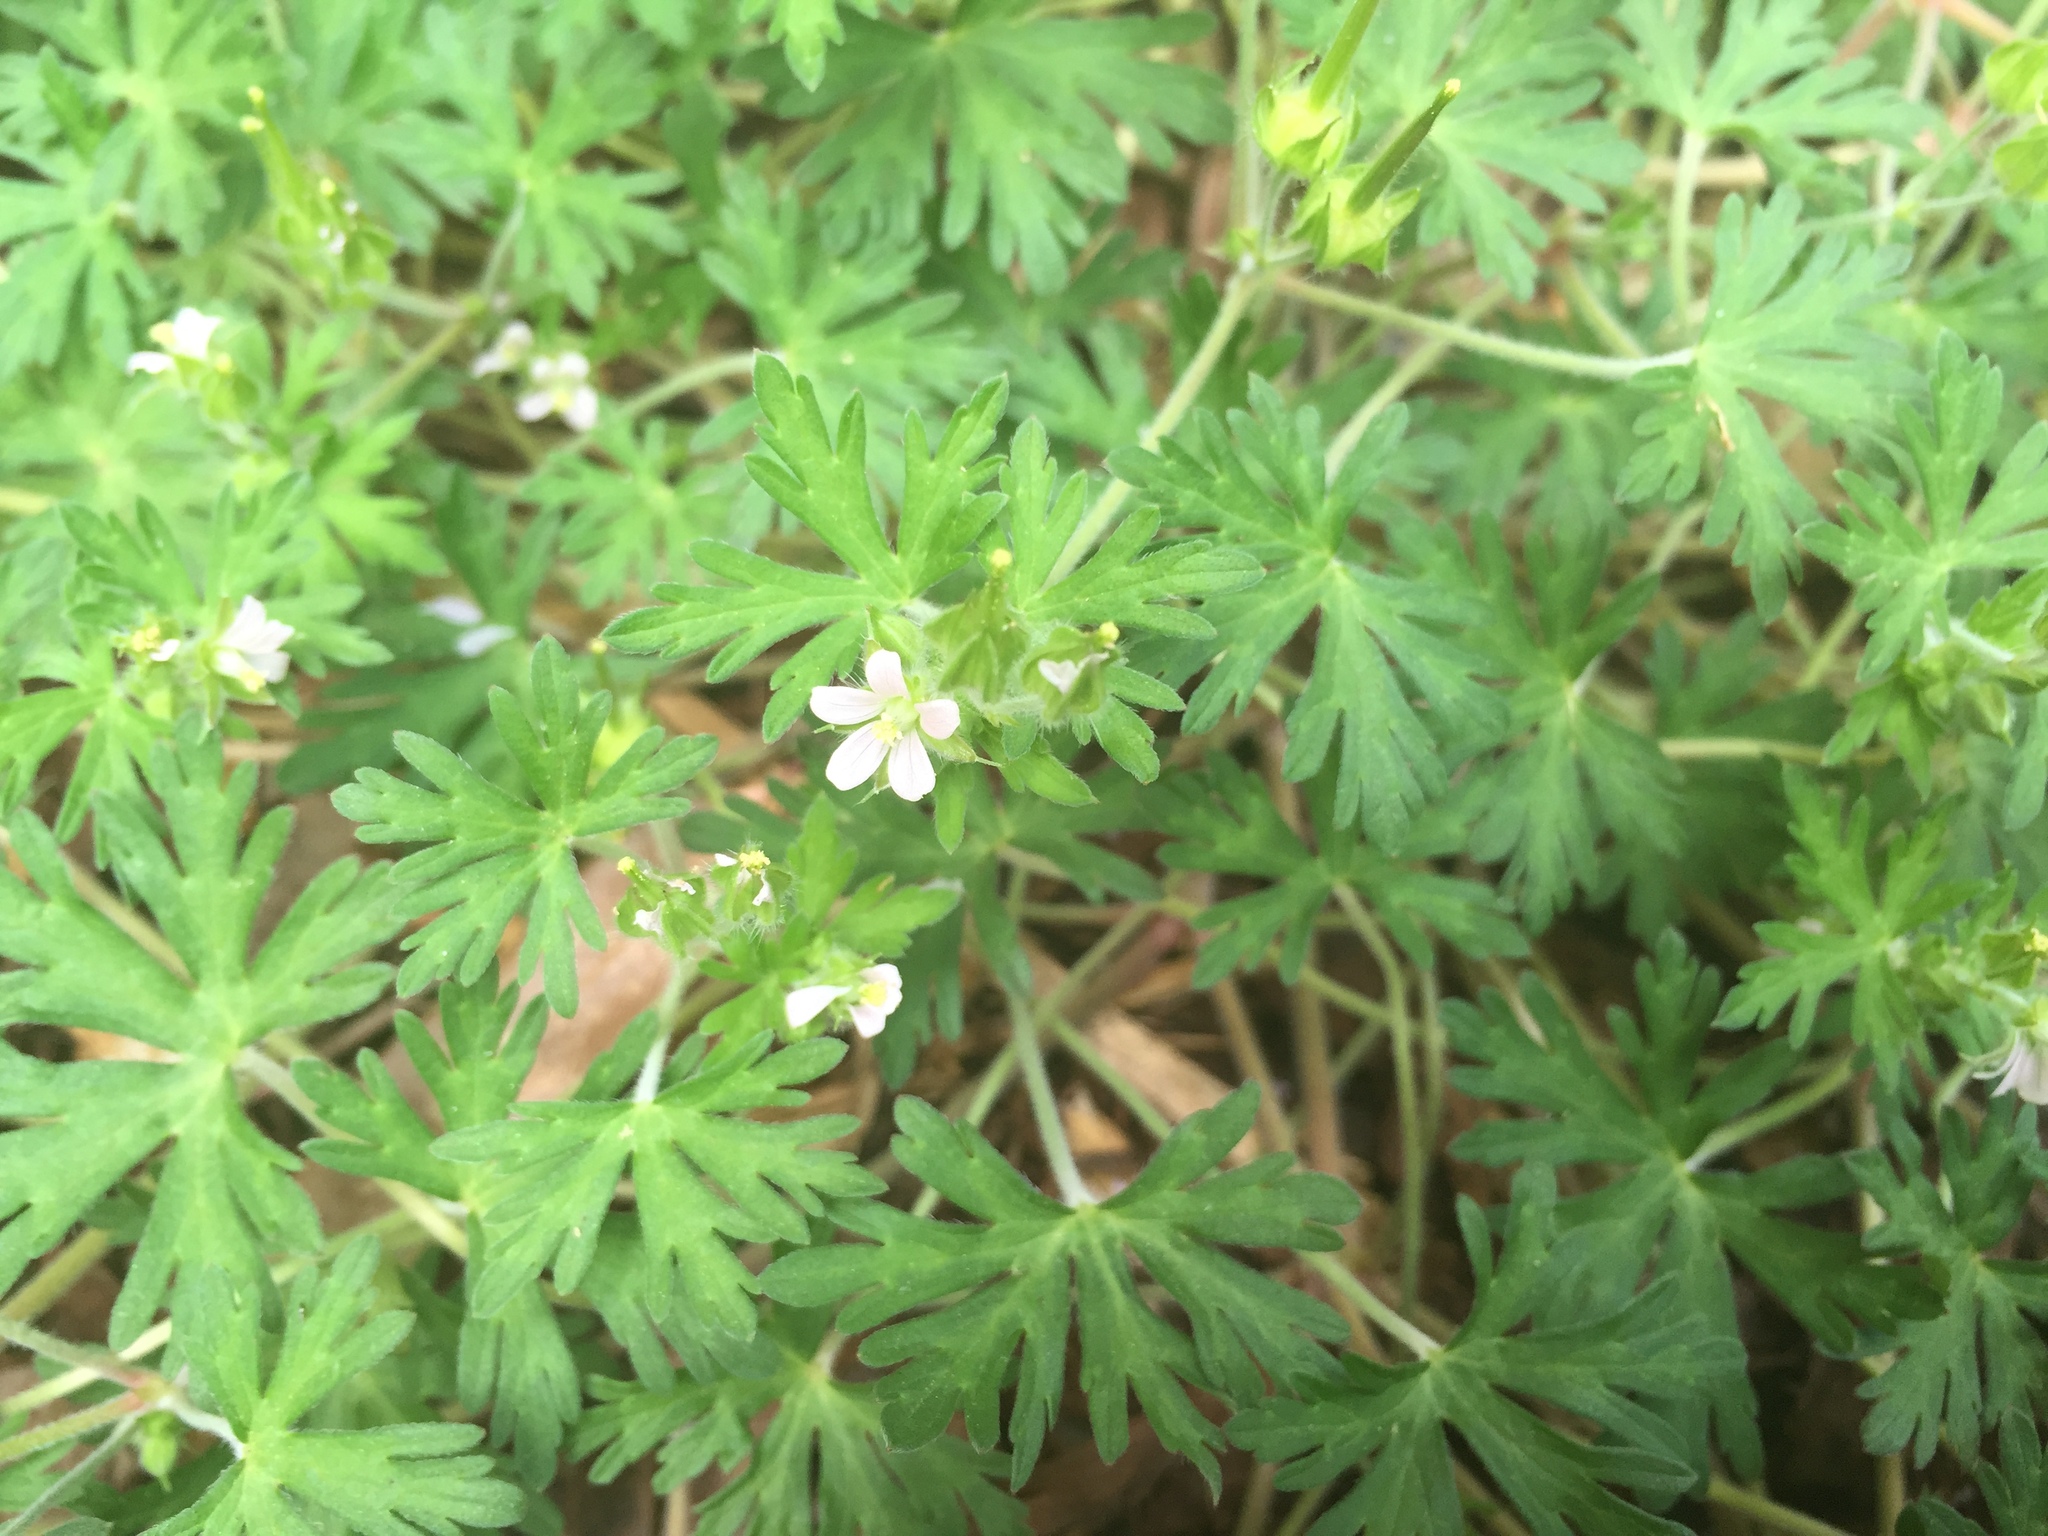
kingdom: Plantae
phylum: Tracheophyta
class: Magnoliopsida
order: Geraniales
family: Geraniaceae
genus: Geranium
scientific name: Geranium carolinianum
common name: Carolina crane's-bill
